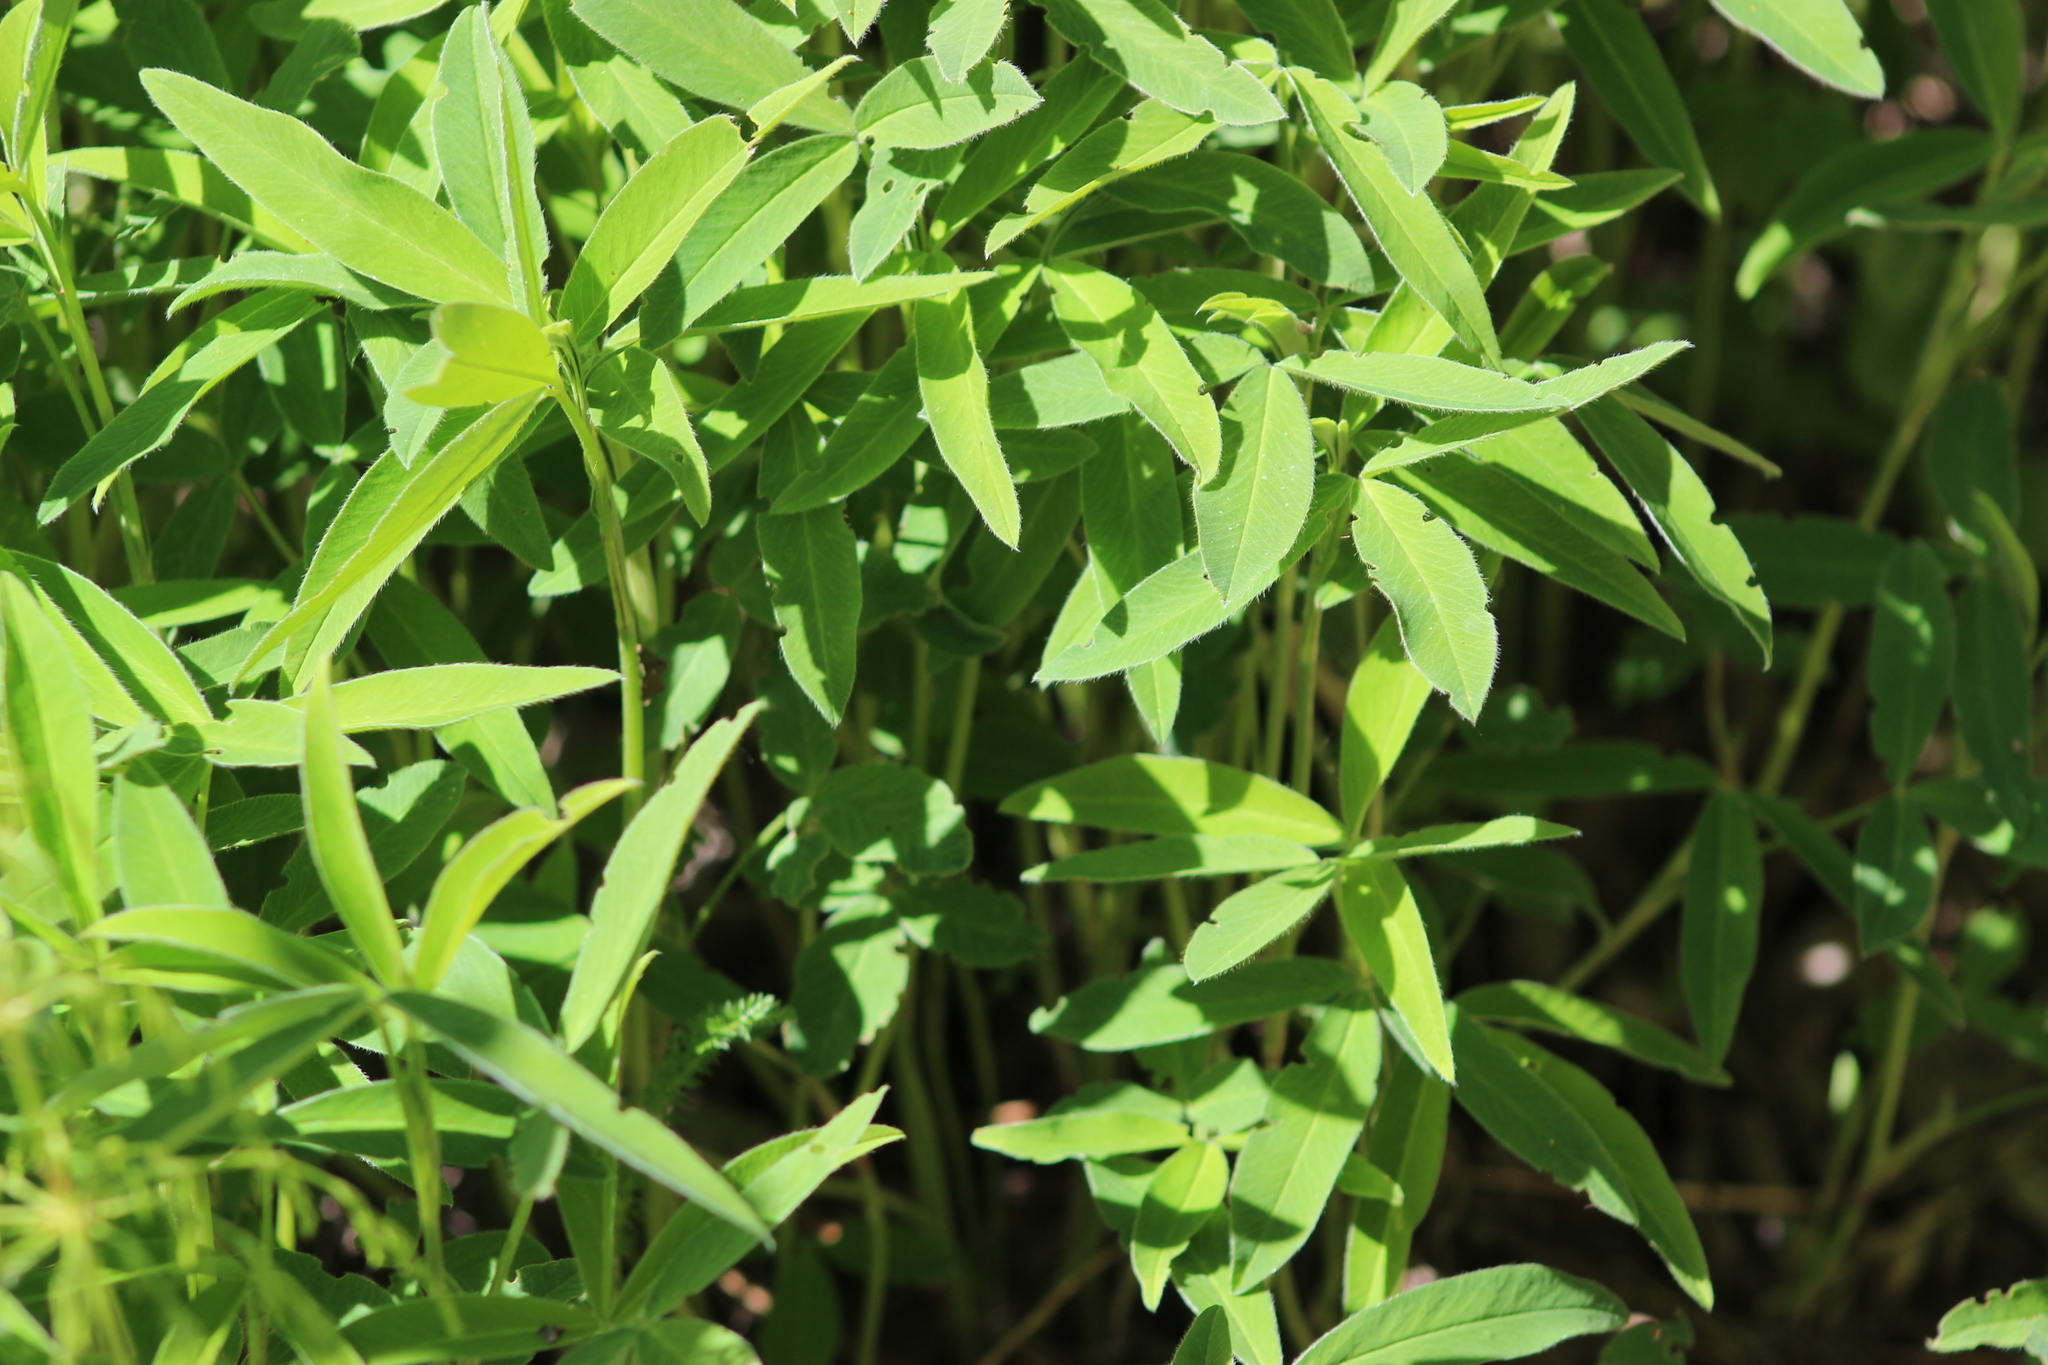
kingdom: Plantae
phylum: Tracheophyta
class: Magnoliopsida
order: Fabales
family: Fabaceae
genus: Trifolium
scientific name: Trifolium medium
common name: Zigzag clover
